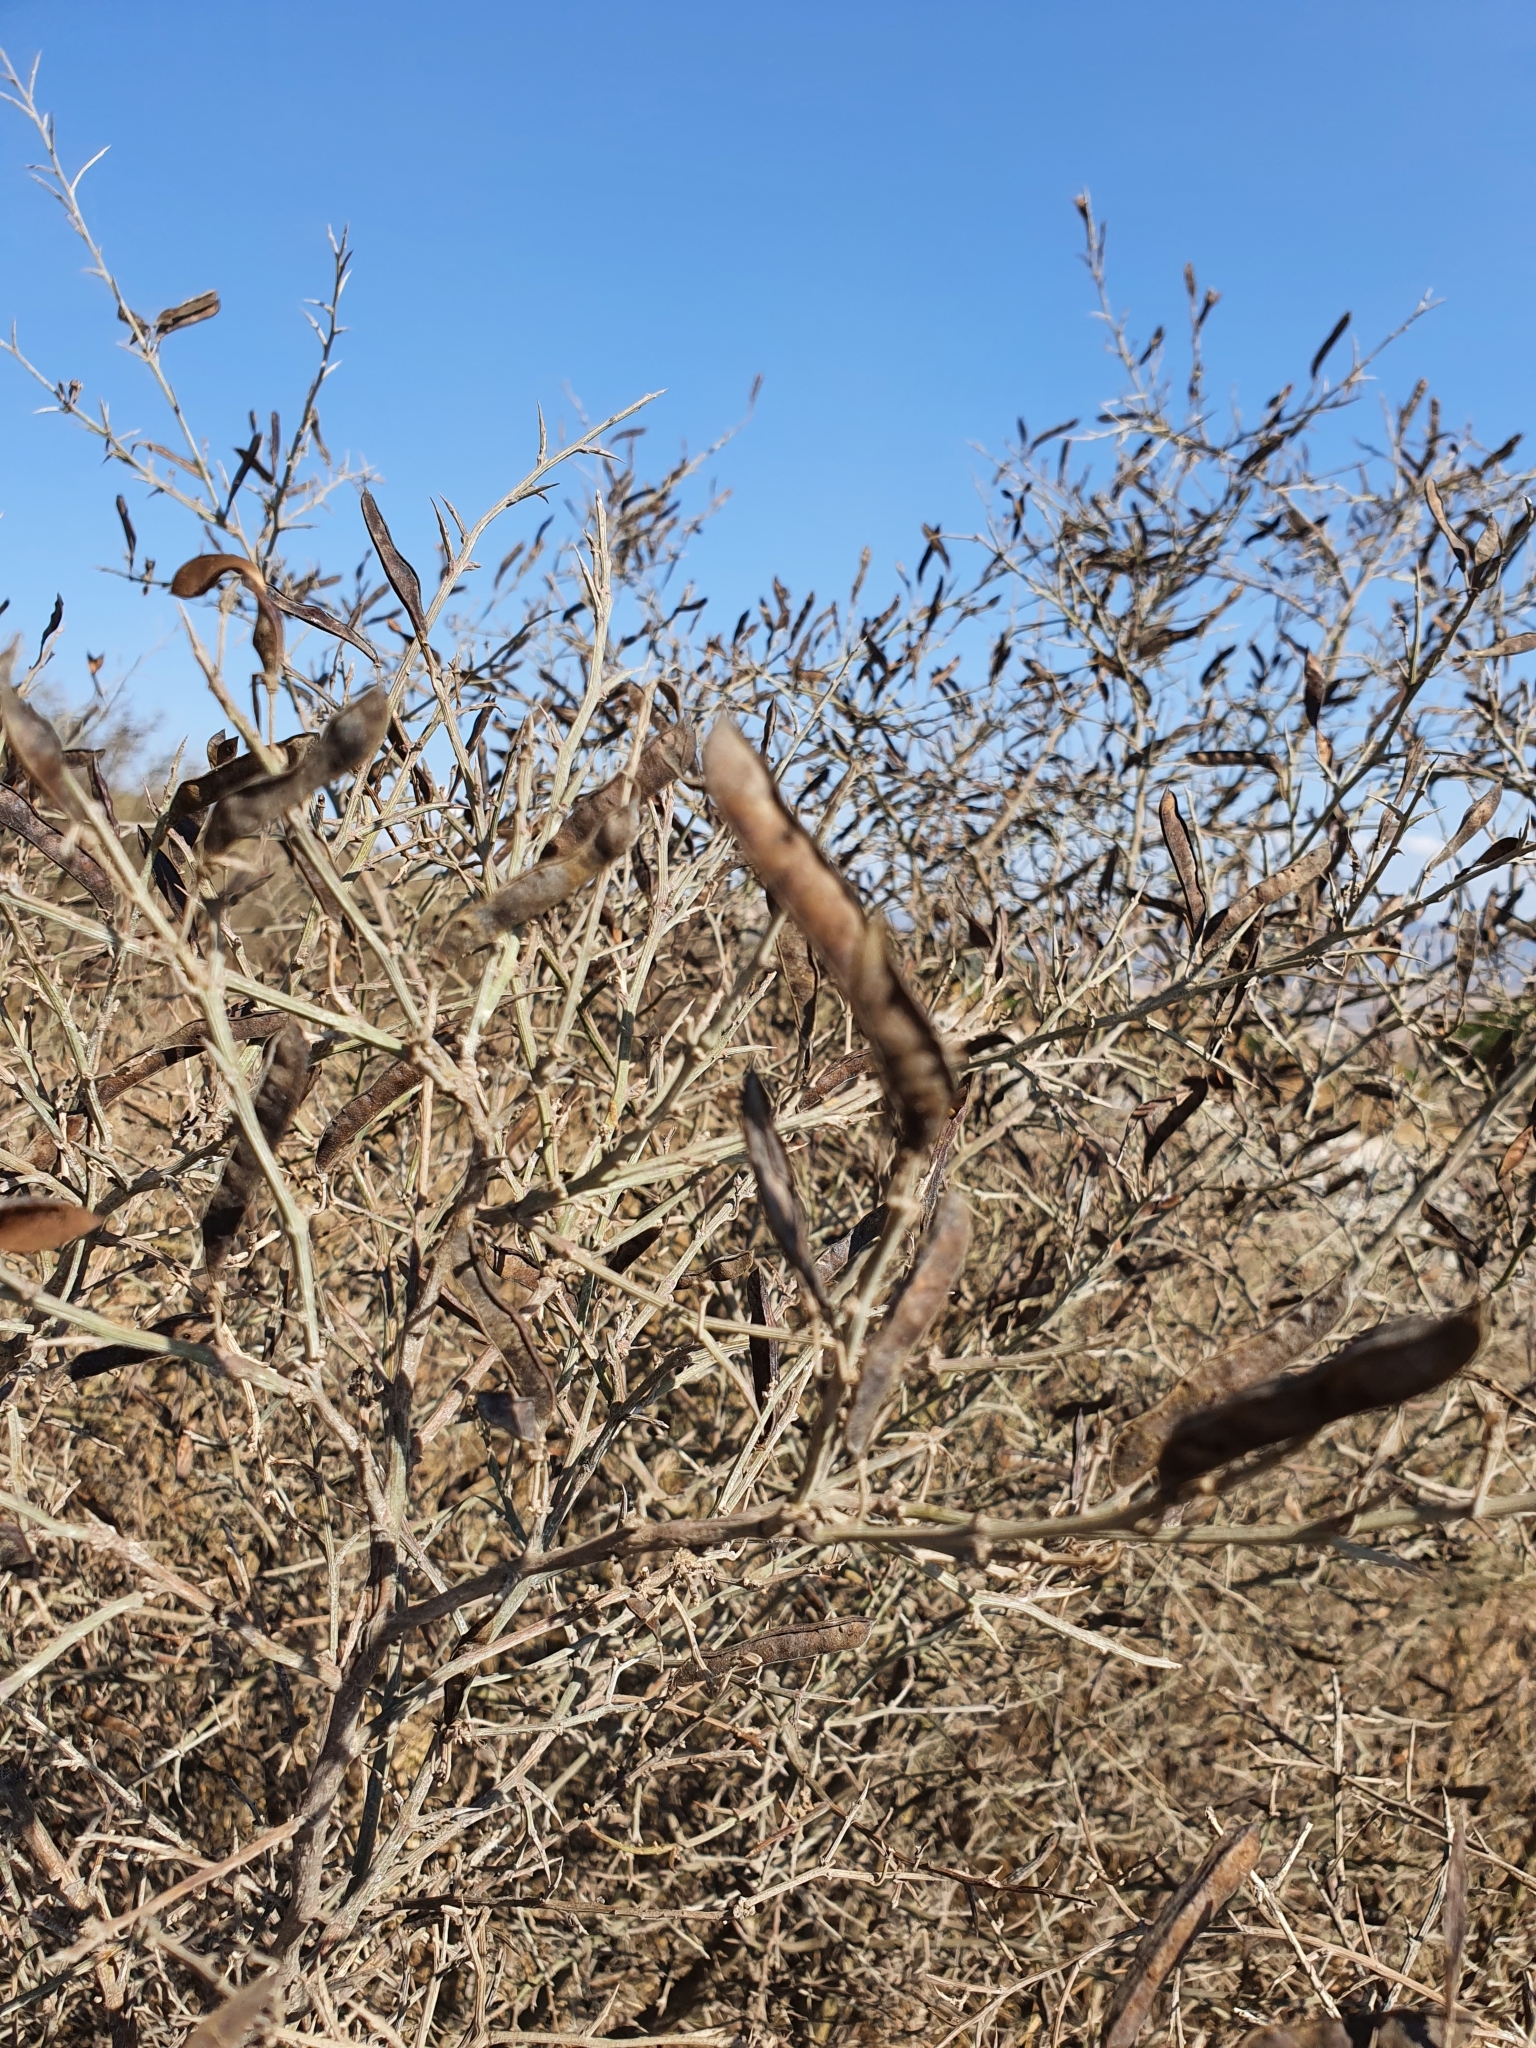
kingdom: Plantae
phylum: Tracheophyta
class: Magnoliopsida
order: Fabales
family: Fabaceae
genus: Calicotome
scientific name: Calicotome spinosa
